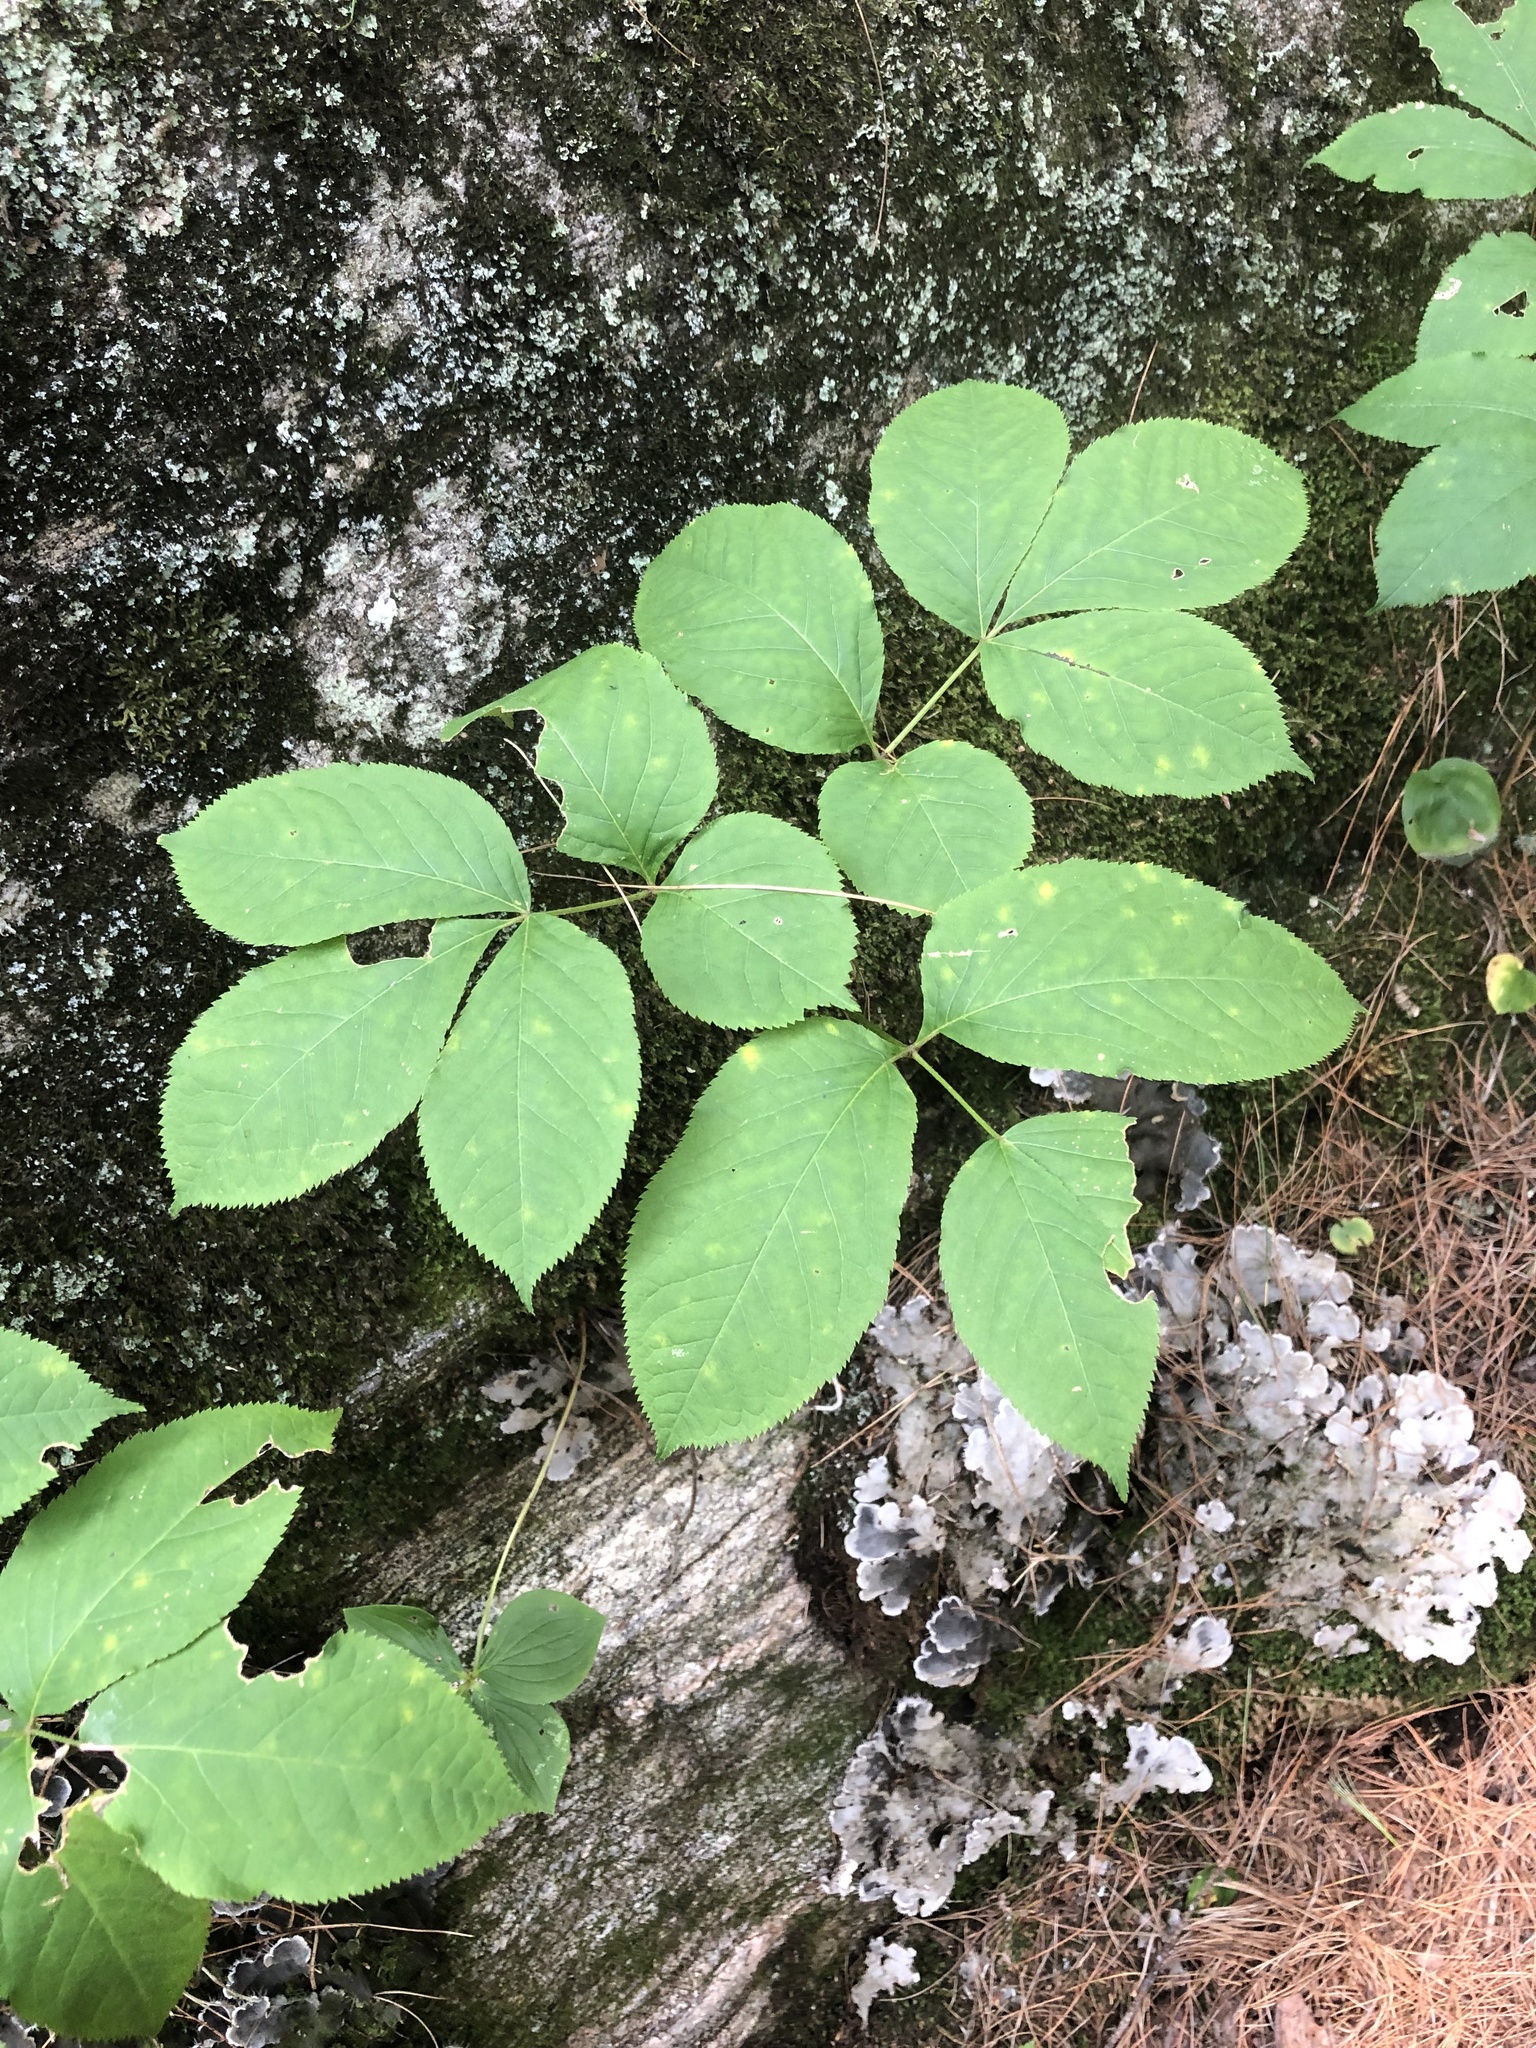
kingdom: Plantae
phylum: Tracheophyta
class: Magnoliopsida
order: Apiales
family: Araliaceae
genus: Aralia
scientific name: Aralia nudicaulis
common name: Wild sarsaparilla
